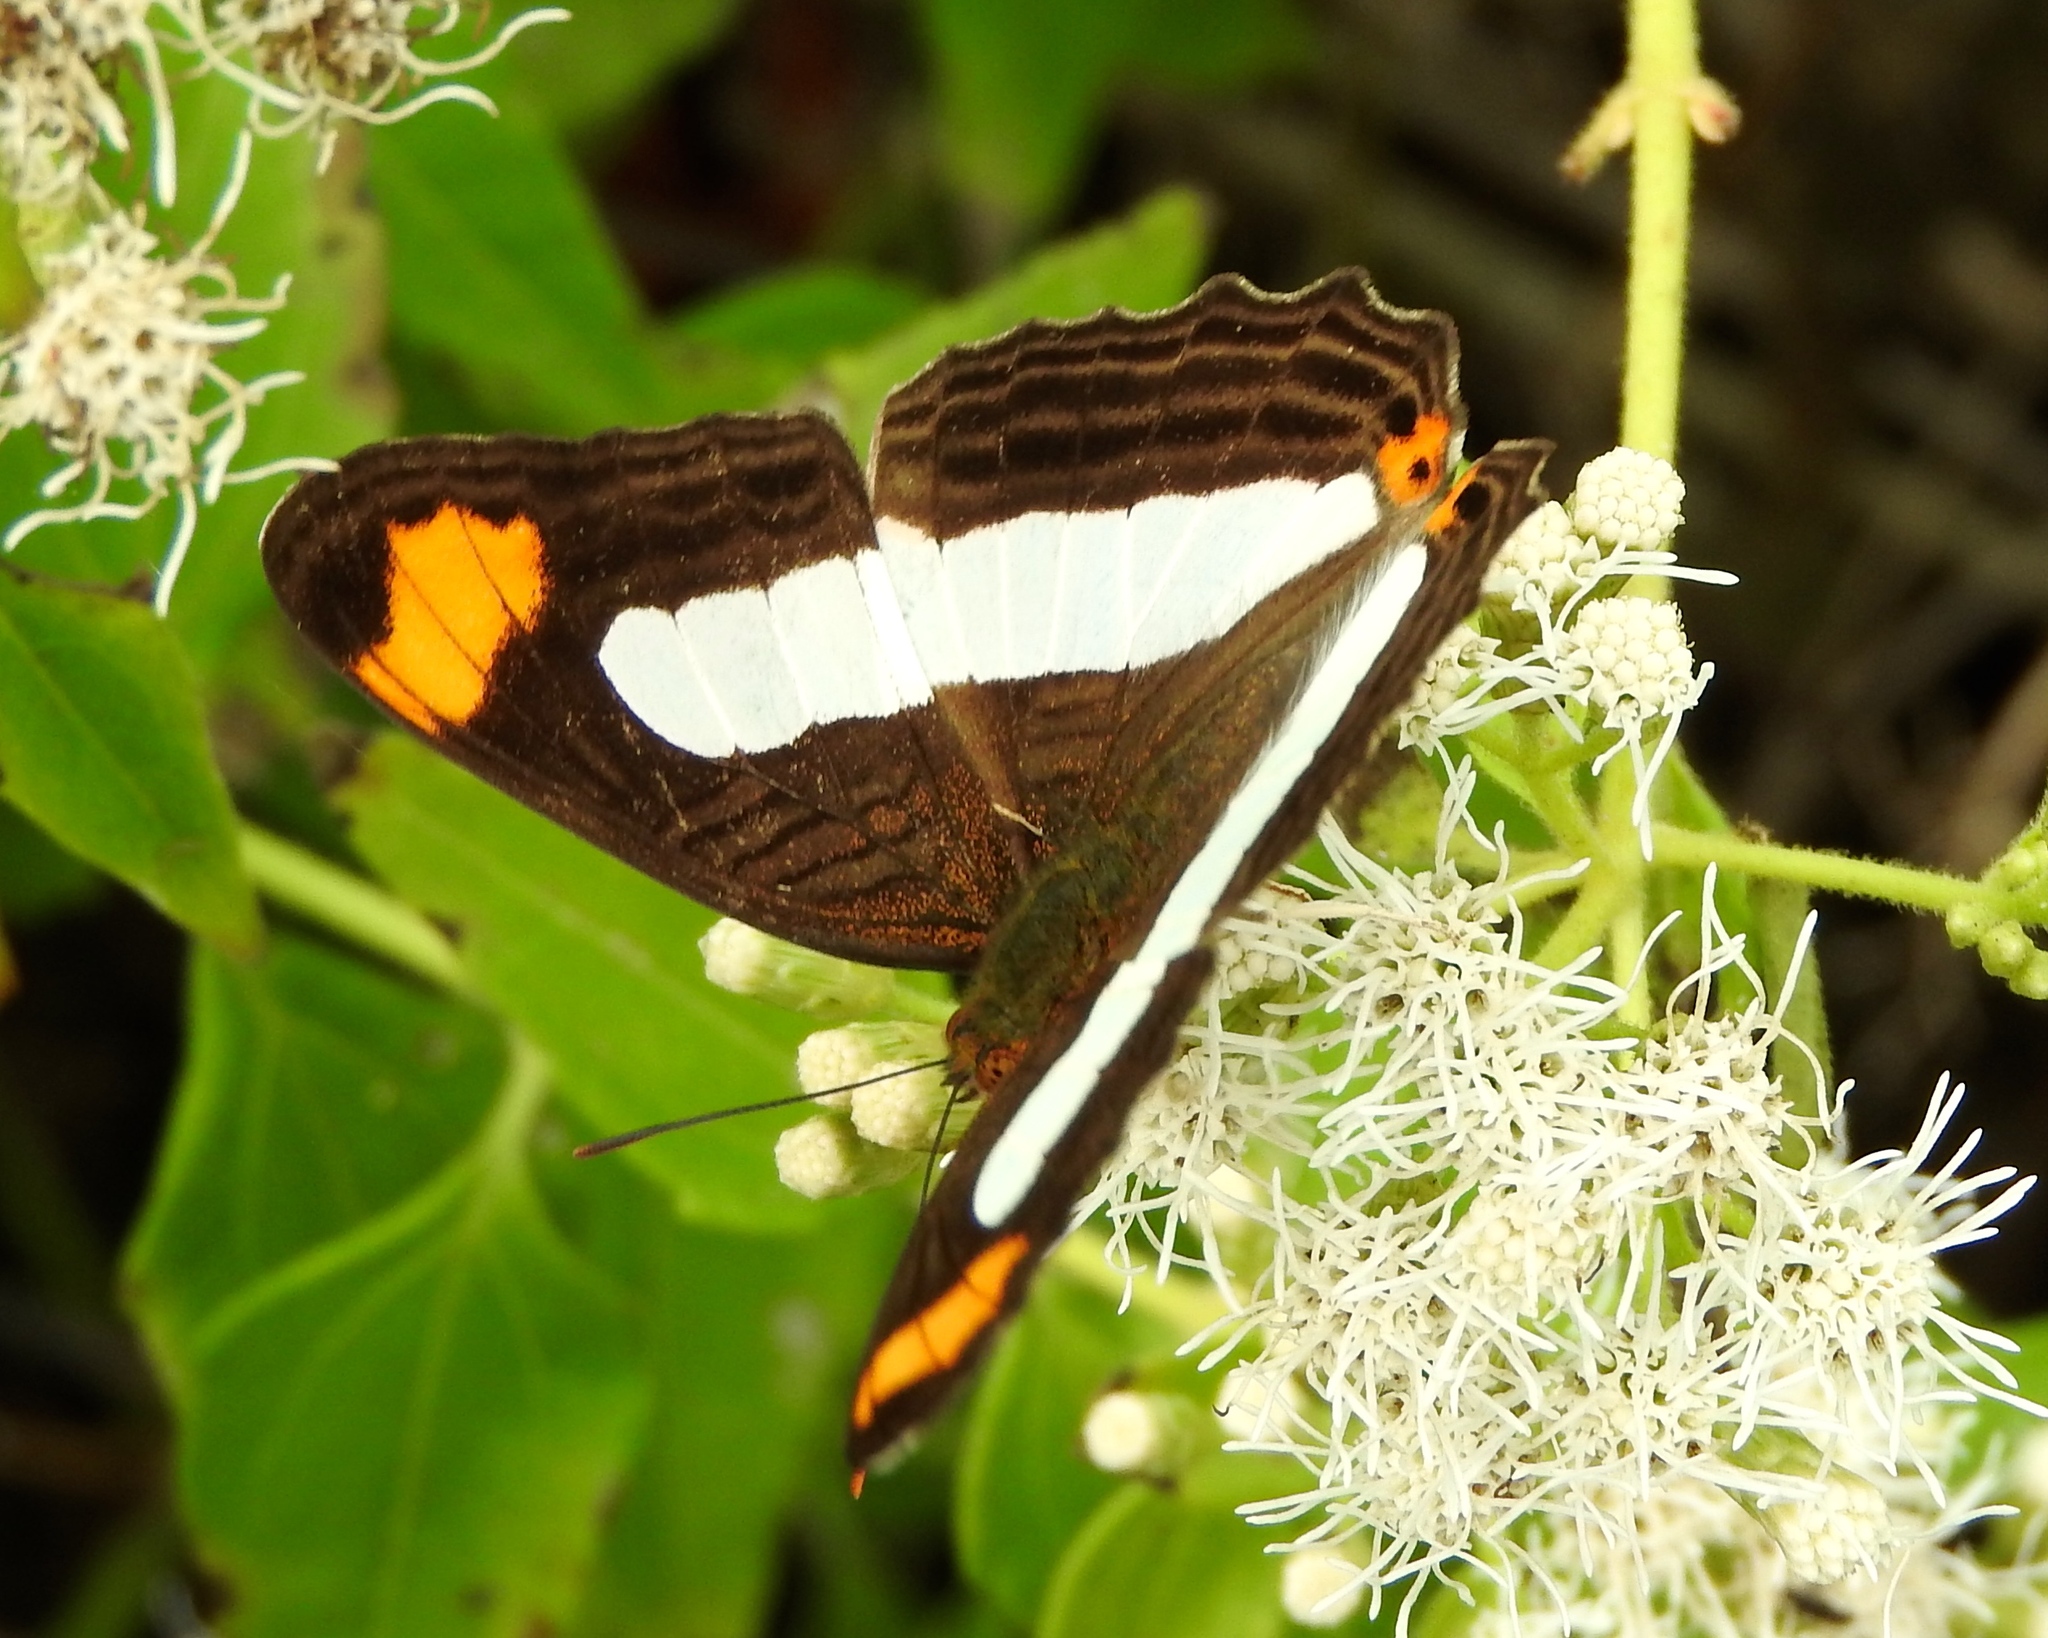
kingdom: Animalia
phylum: Arthropoda
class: Insecta
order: Lepidoptera
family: Nymphalidae
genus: Limenitis
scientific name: Limenitis iphiclus
